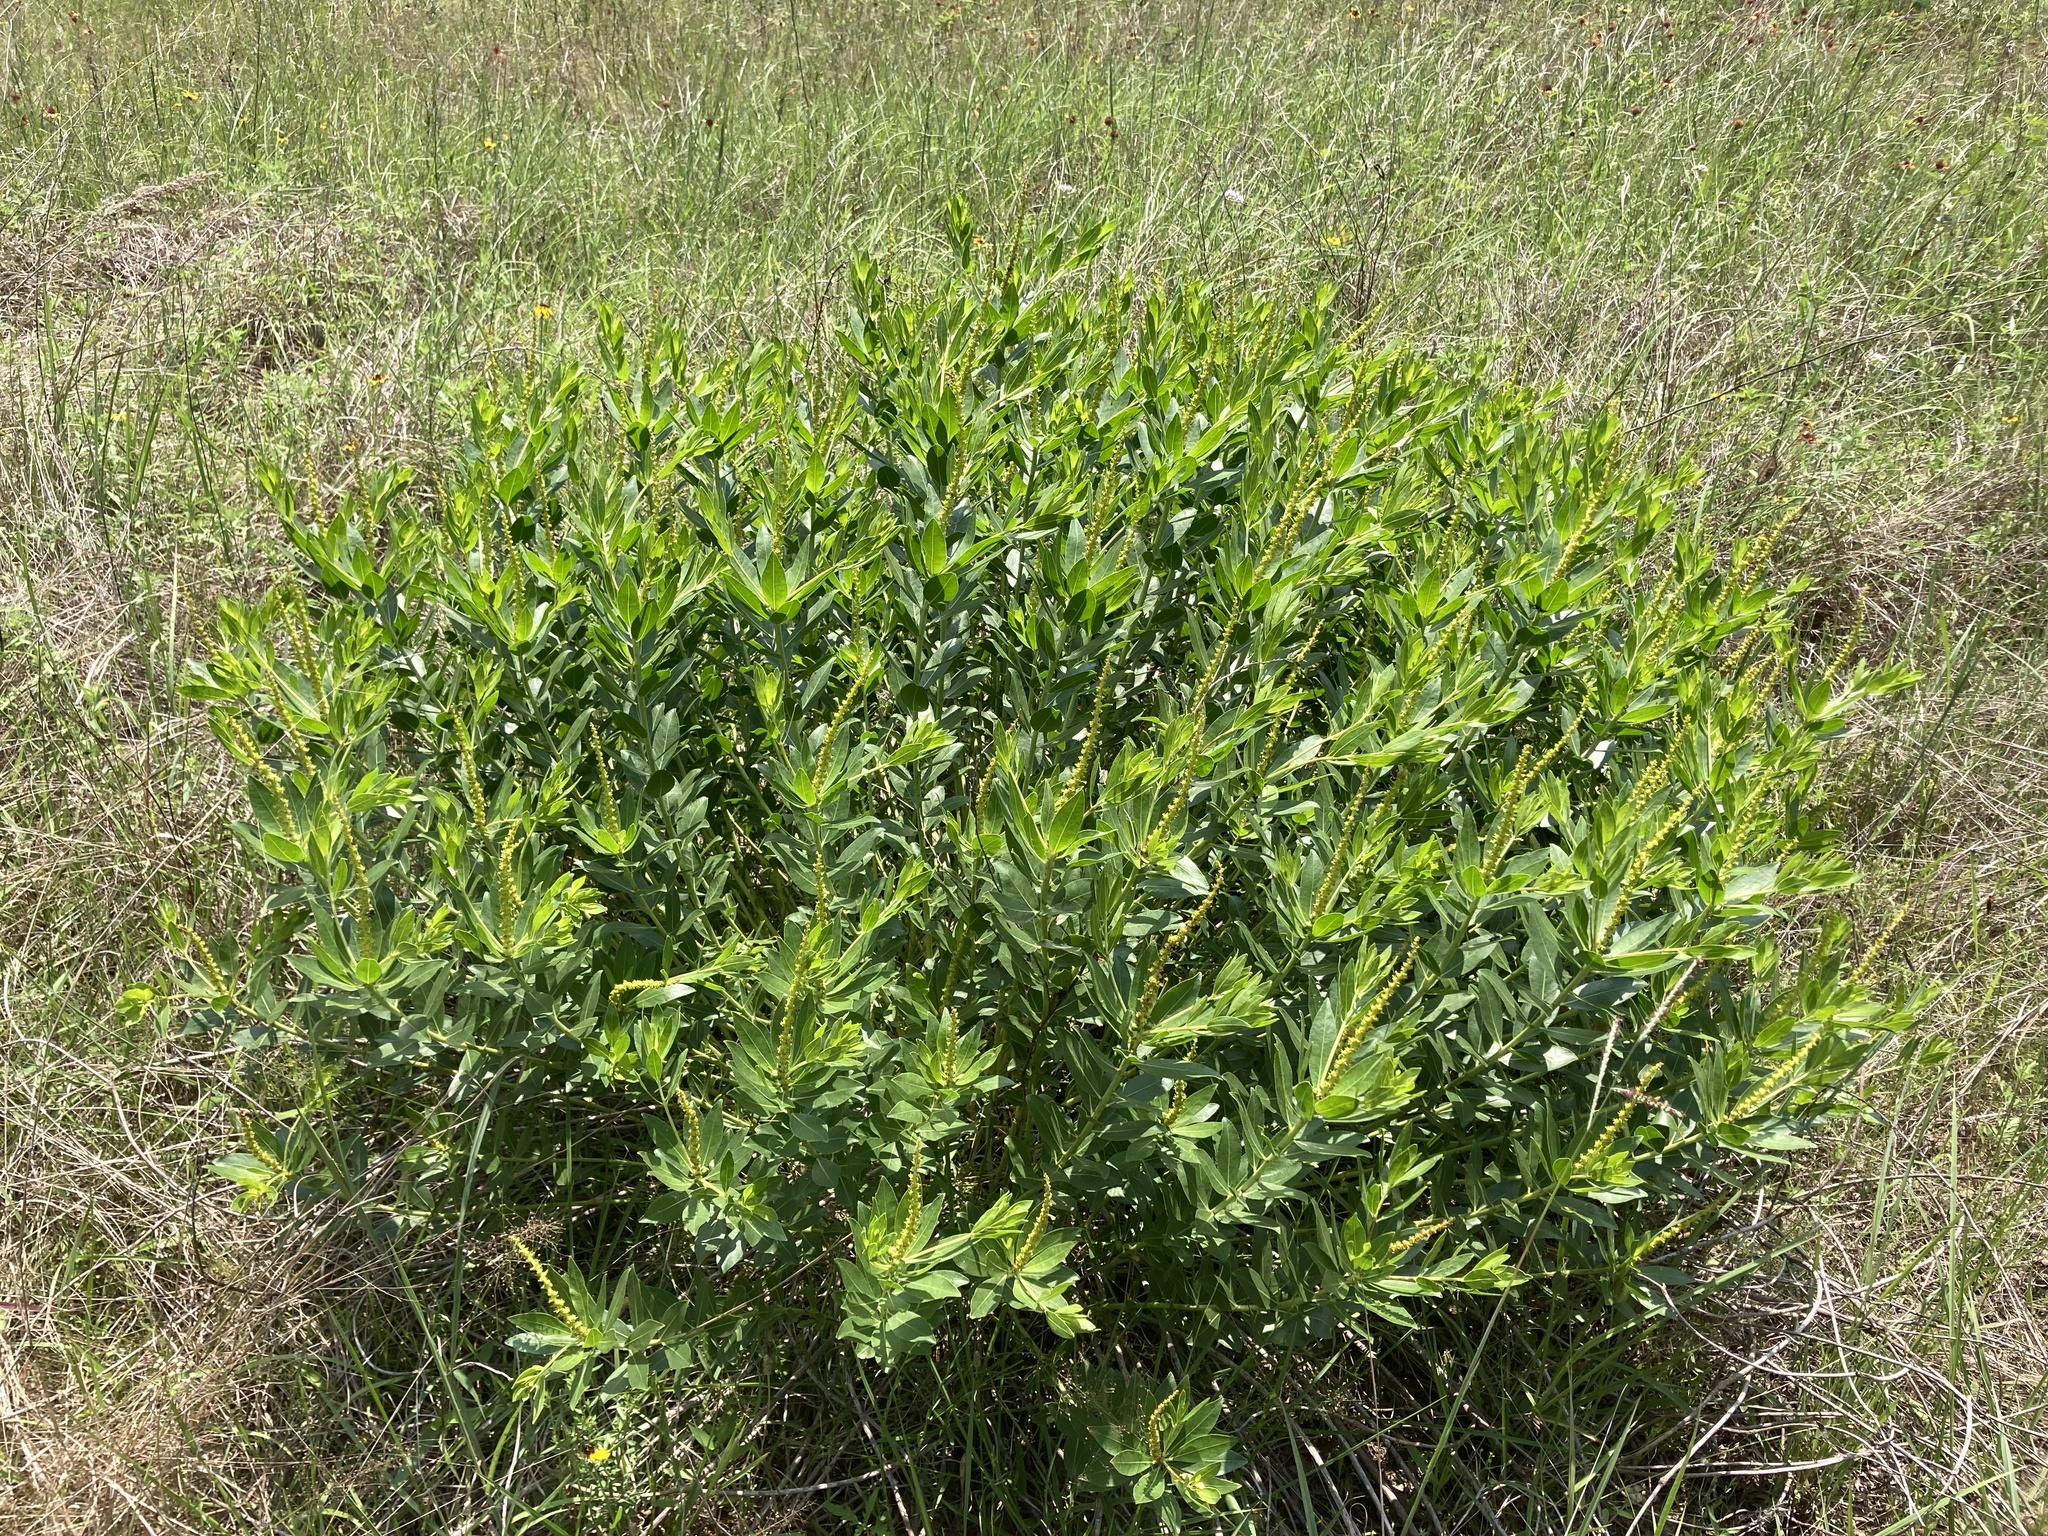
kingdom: Plantae
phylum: Tracheophyta
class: Magnoliopsida
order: Malpighiales
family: Euphorbiaceae
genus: Stillingia
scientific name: Stillingia sylvatica
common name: Queen's-delight
